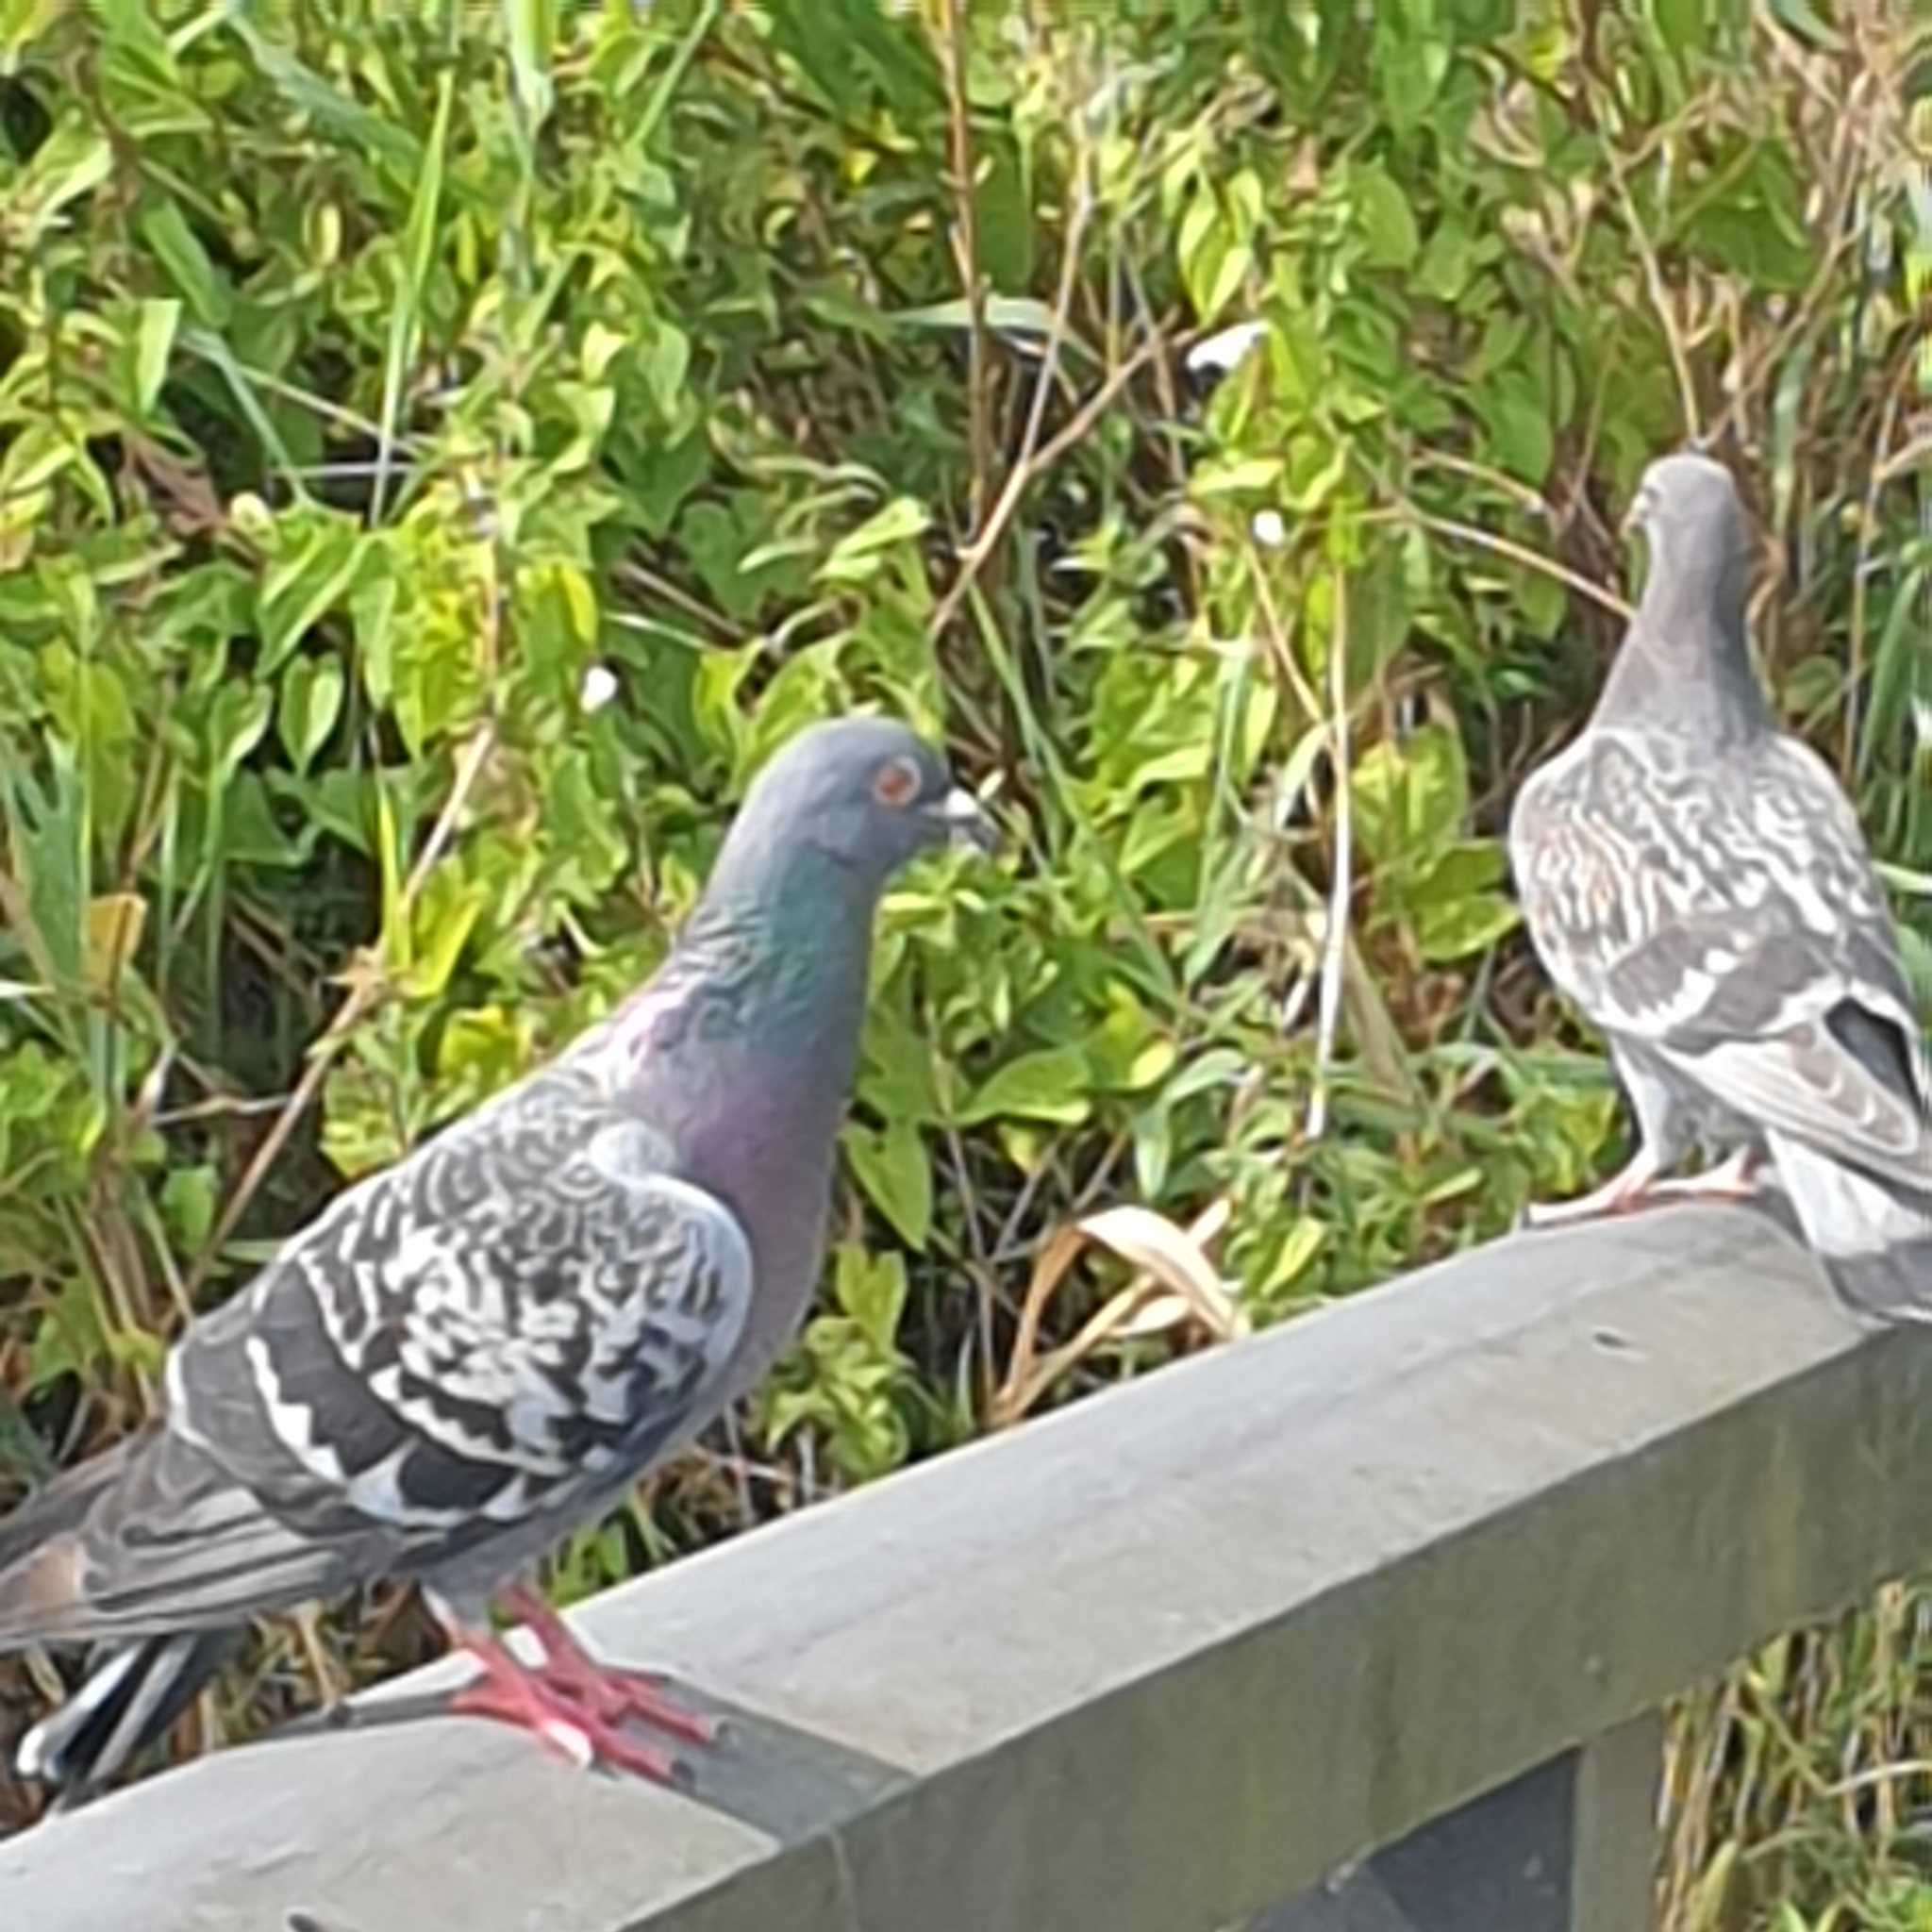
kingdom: Animalia
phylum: Chordata
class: Aves
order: Columbiformes
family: Columbidae
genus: Columba
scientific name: Columba livia
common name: Rock pigeon
